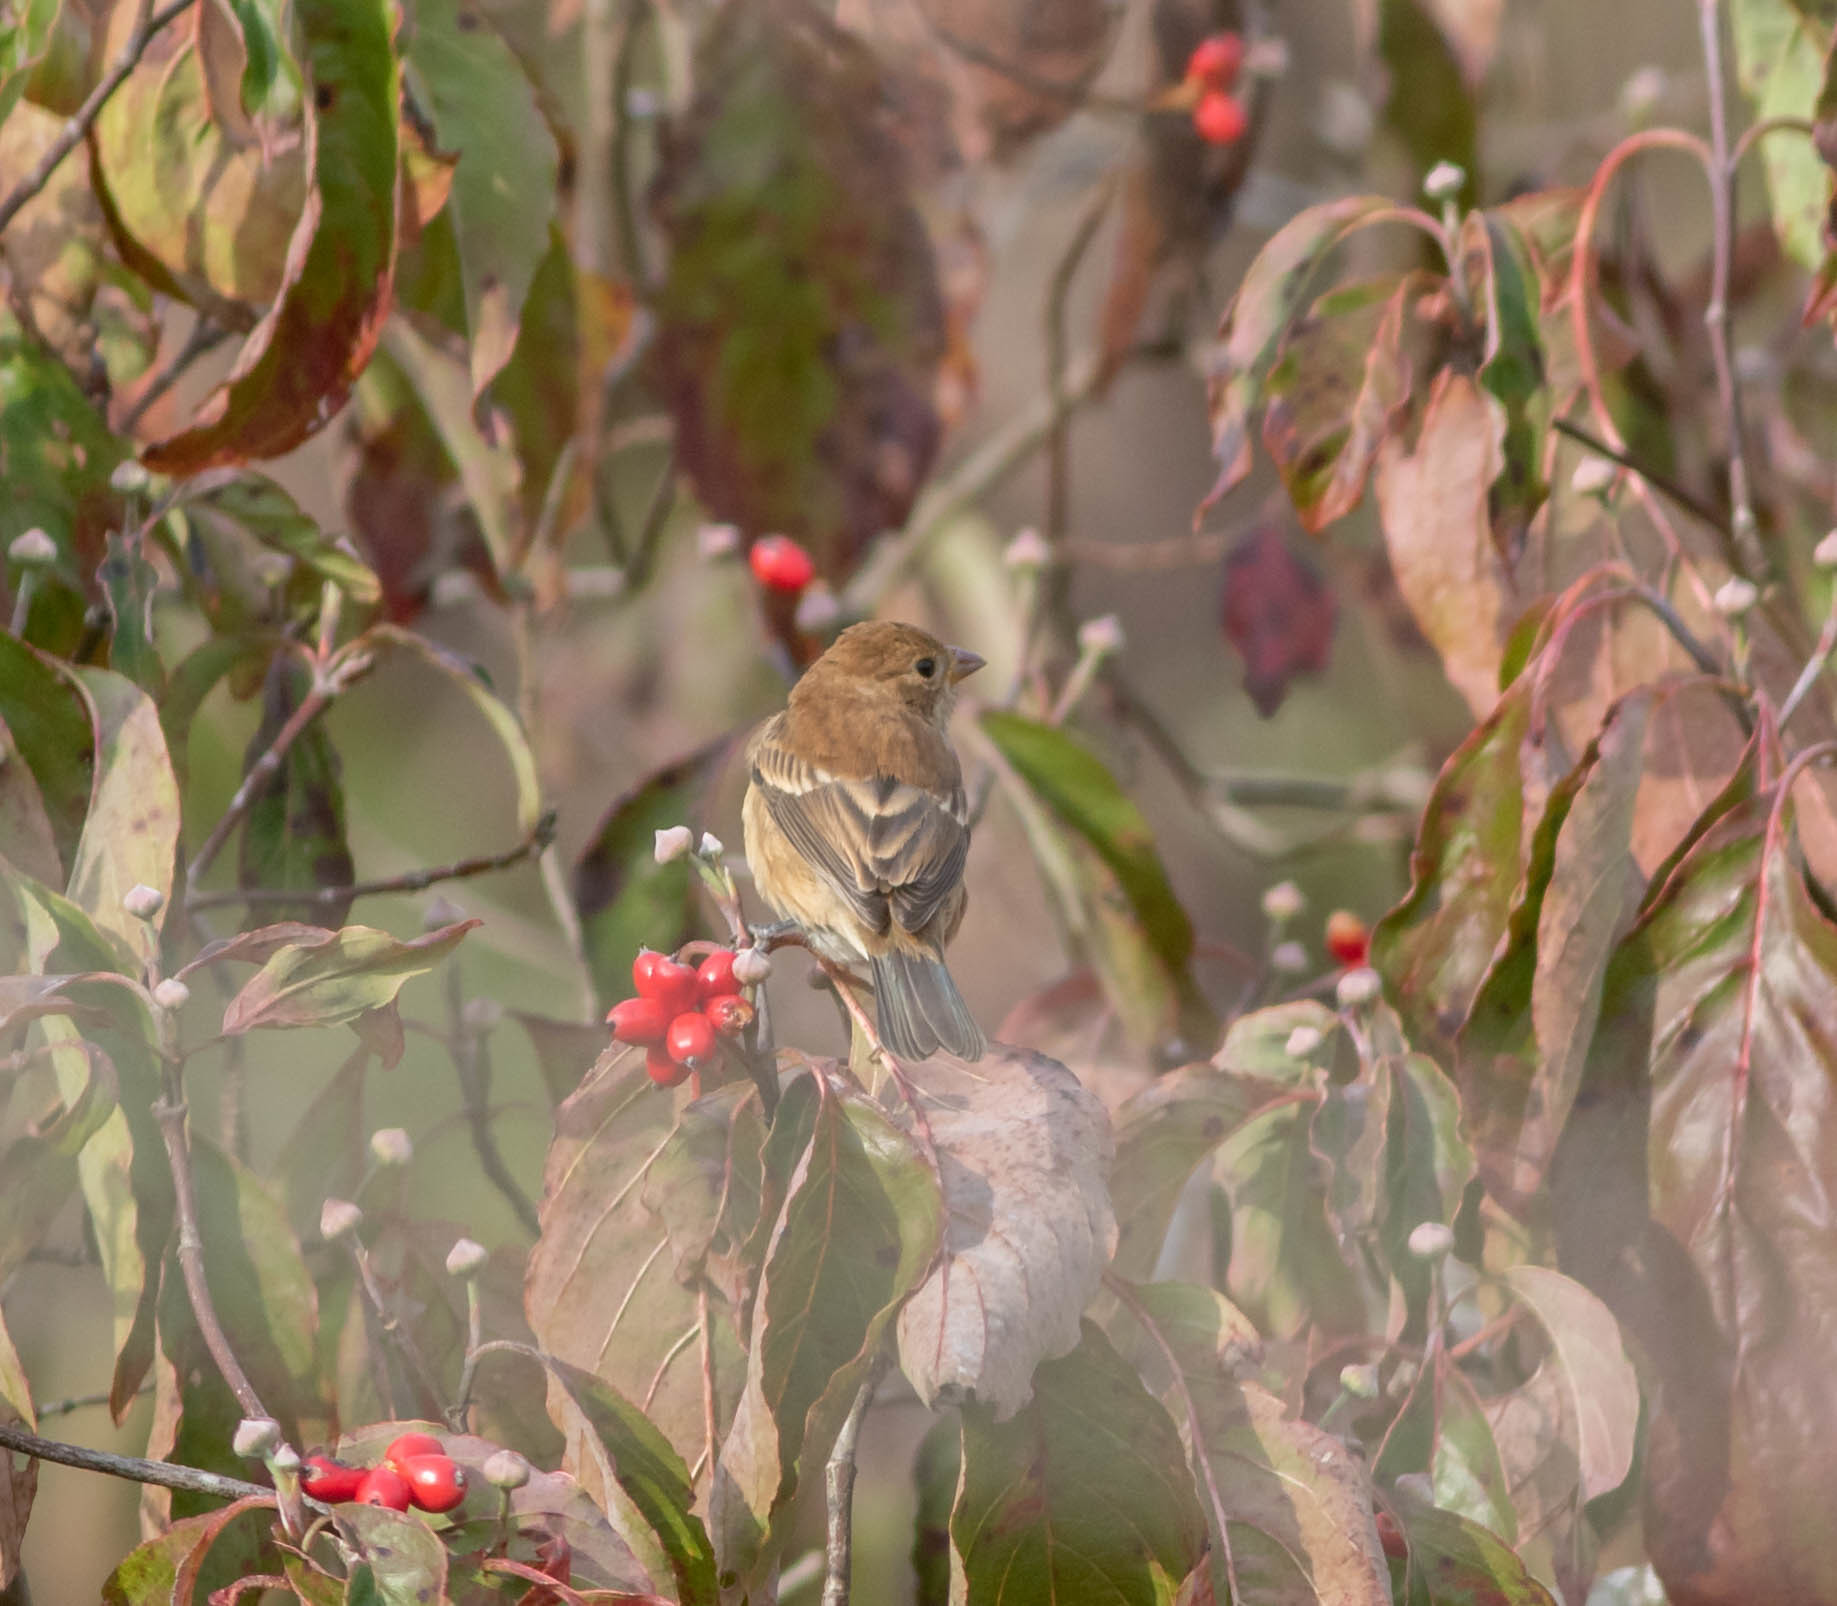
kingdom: Animalia
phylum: Chordata
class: Aves
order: Passeriformes
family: Cardinalidae
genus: Passerina
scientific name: Passerina cyanea
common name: Indigo bunting
